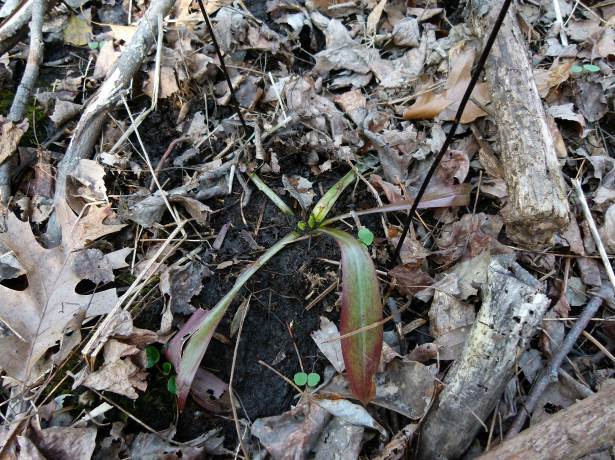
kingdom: Plantae
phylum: Tracheophyta
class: Liliopsida
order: Liliales
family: Melanthiaceae
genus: Helonias
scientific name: Helonias bullata
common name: Swamp-pink
